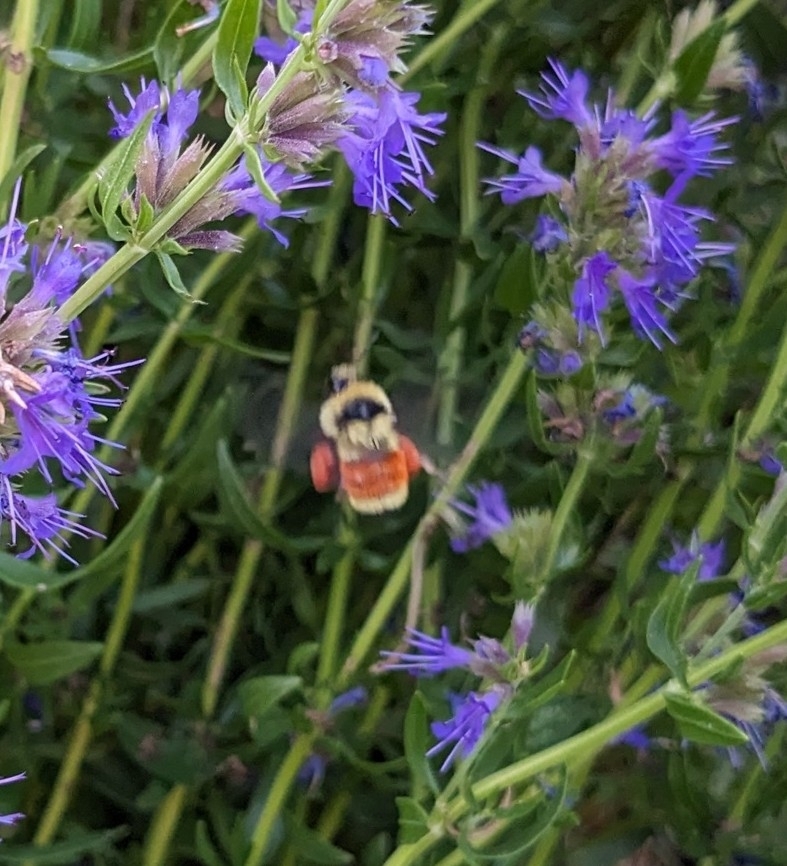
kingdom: Animalia
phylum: Arthropoda
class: Insecta
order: Hymenoptera
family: Apidae
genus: Bombus
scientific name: Bombus huntii
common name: Hunt bumble bee
